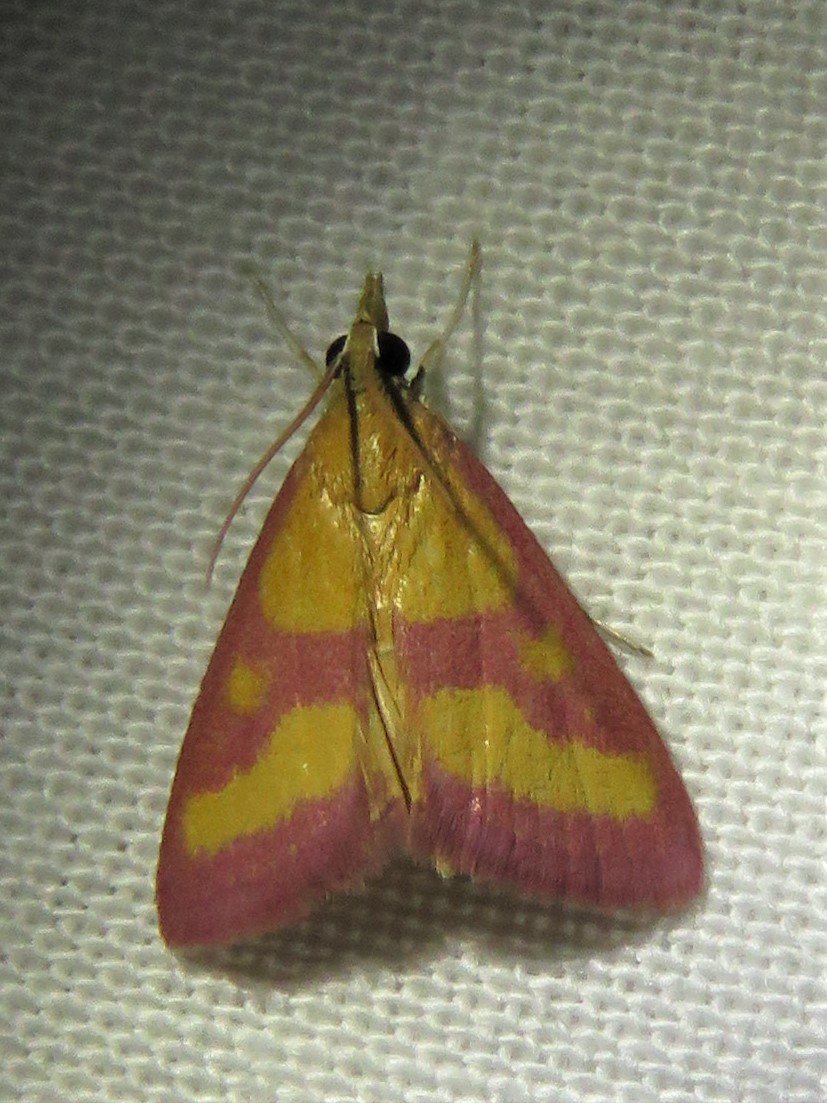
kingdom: Animalia
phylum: Arthropoda
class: Insecta
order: Lepidoptera
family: Crambidae
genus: Pyrausta
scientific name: Pyrausta laticlavia
